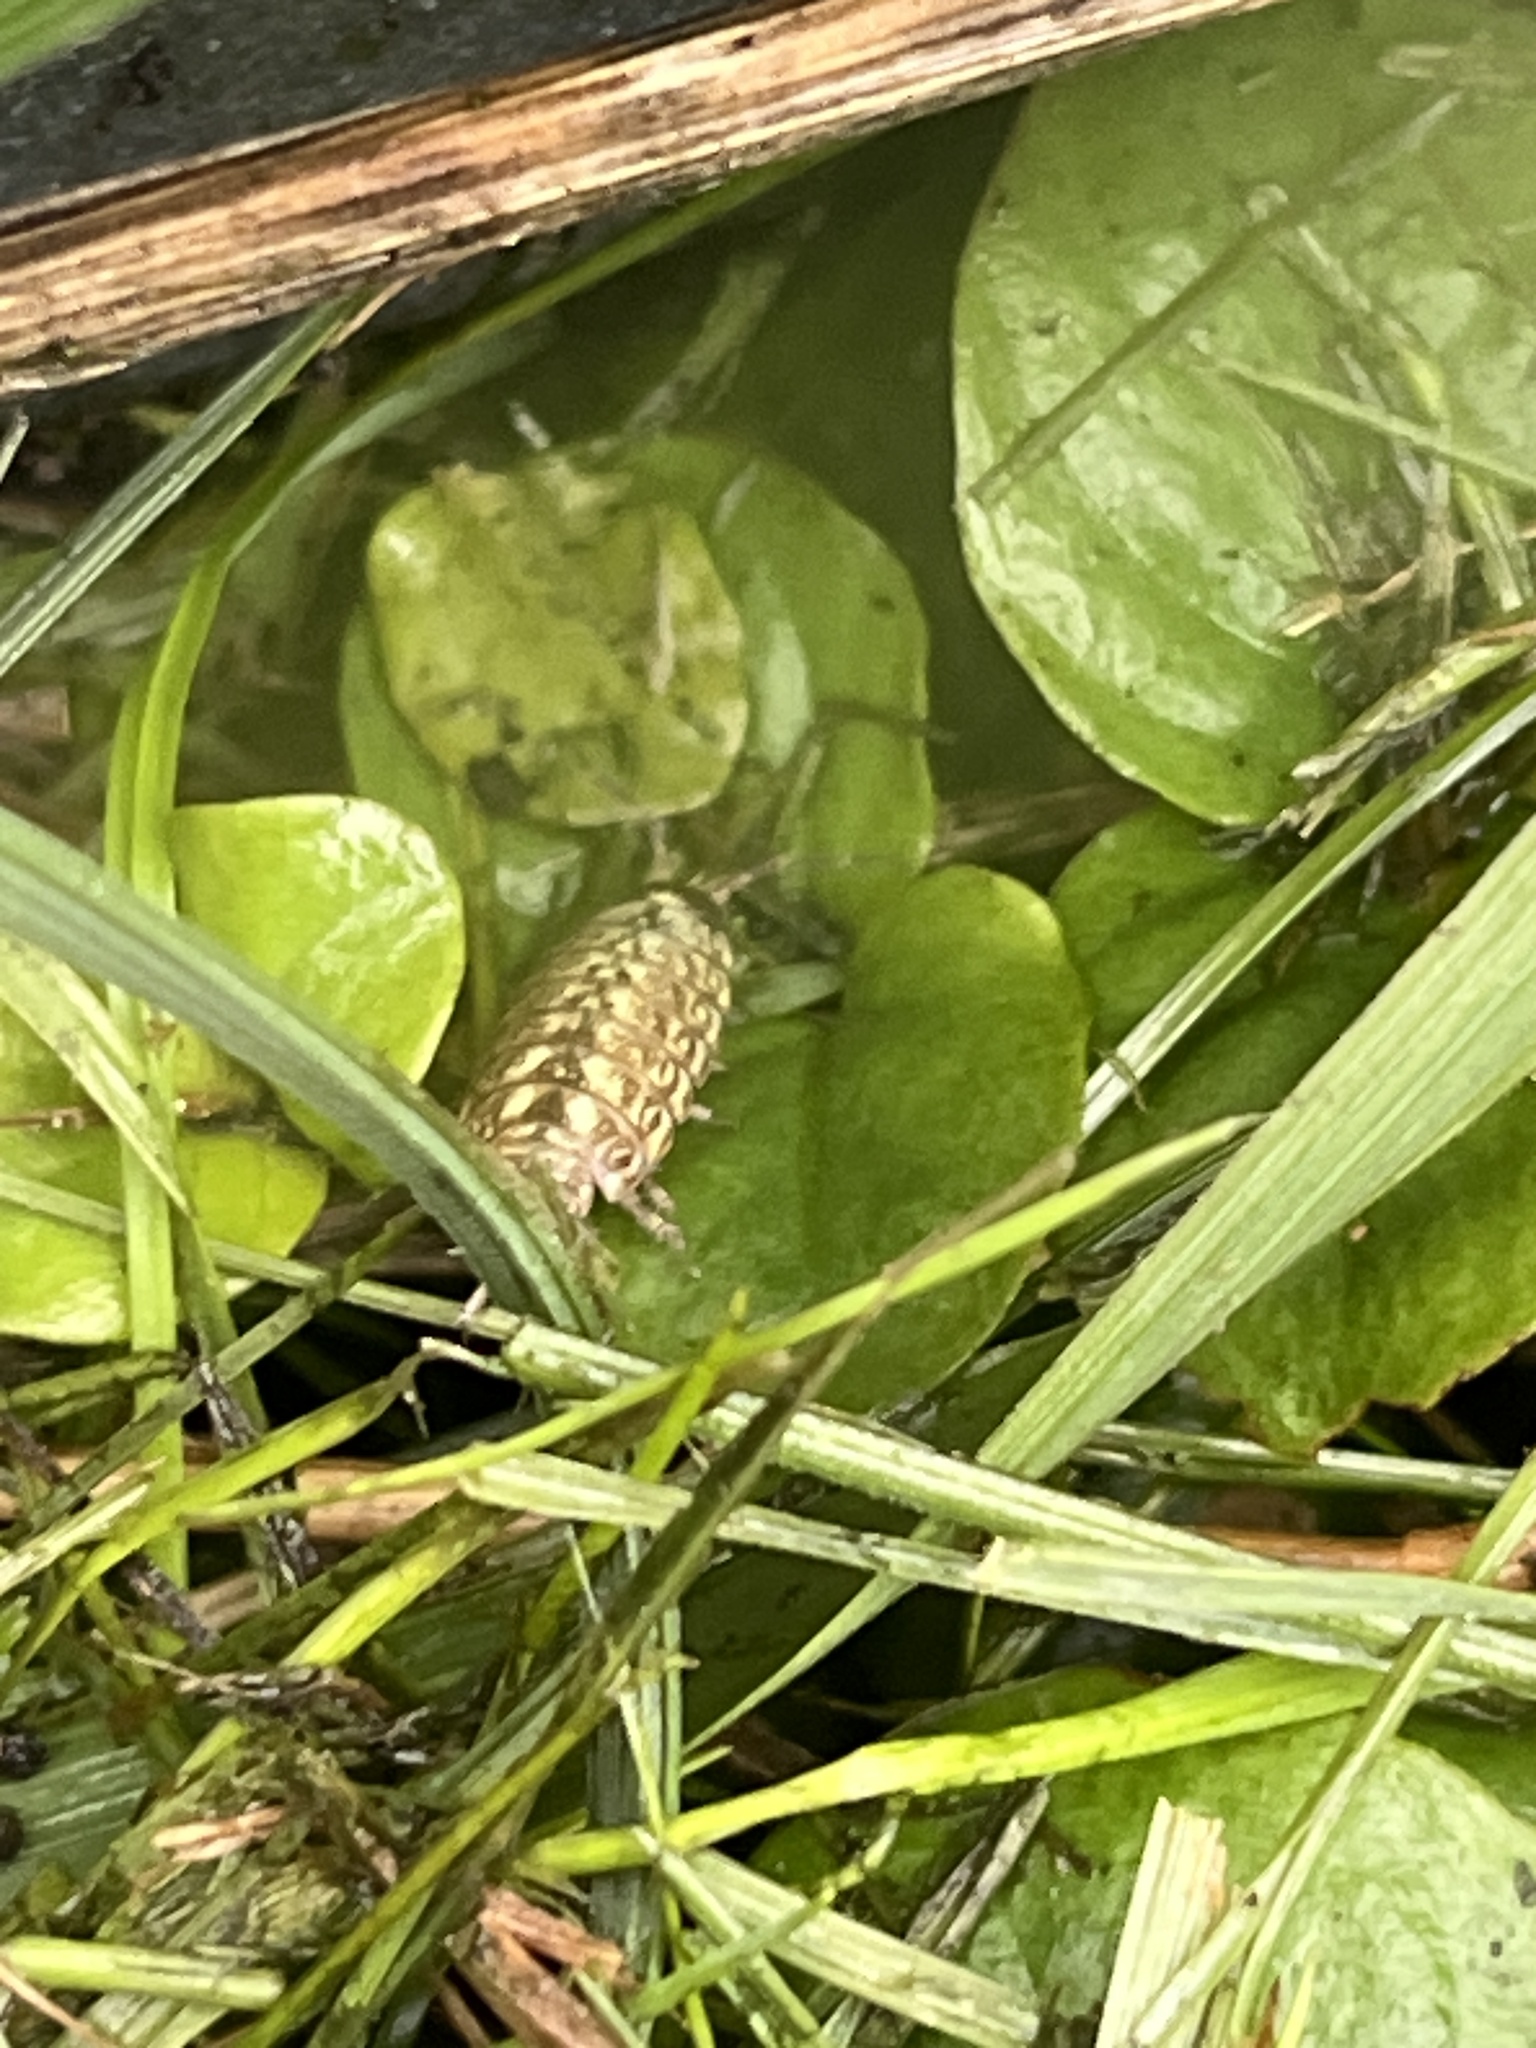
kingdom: Animalia
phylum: Arthropoda
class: Malacostraca
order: Isopoda
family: Philosciidae
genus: Philoscia
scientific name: Philoscia muscorum
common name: Common striped woodlouse
